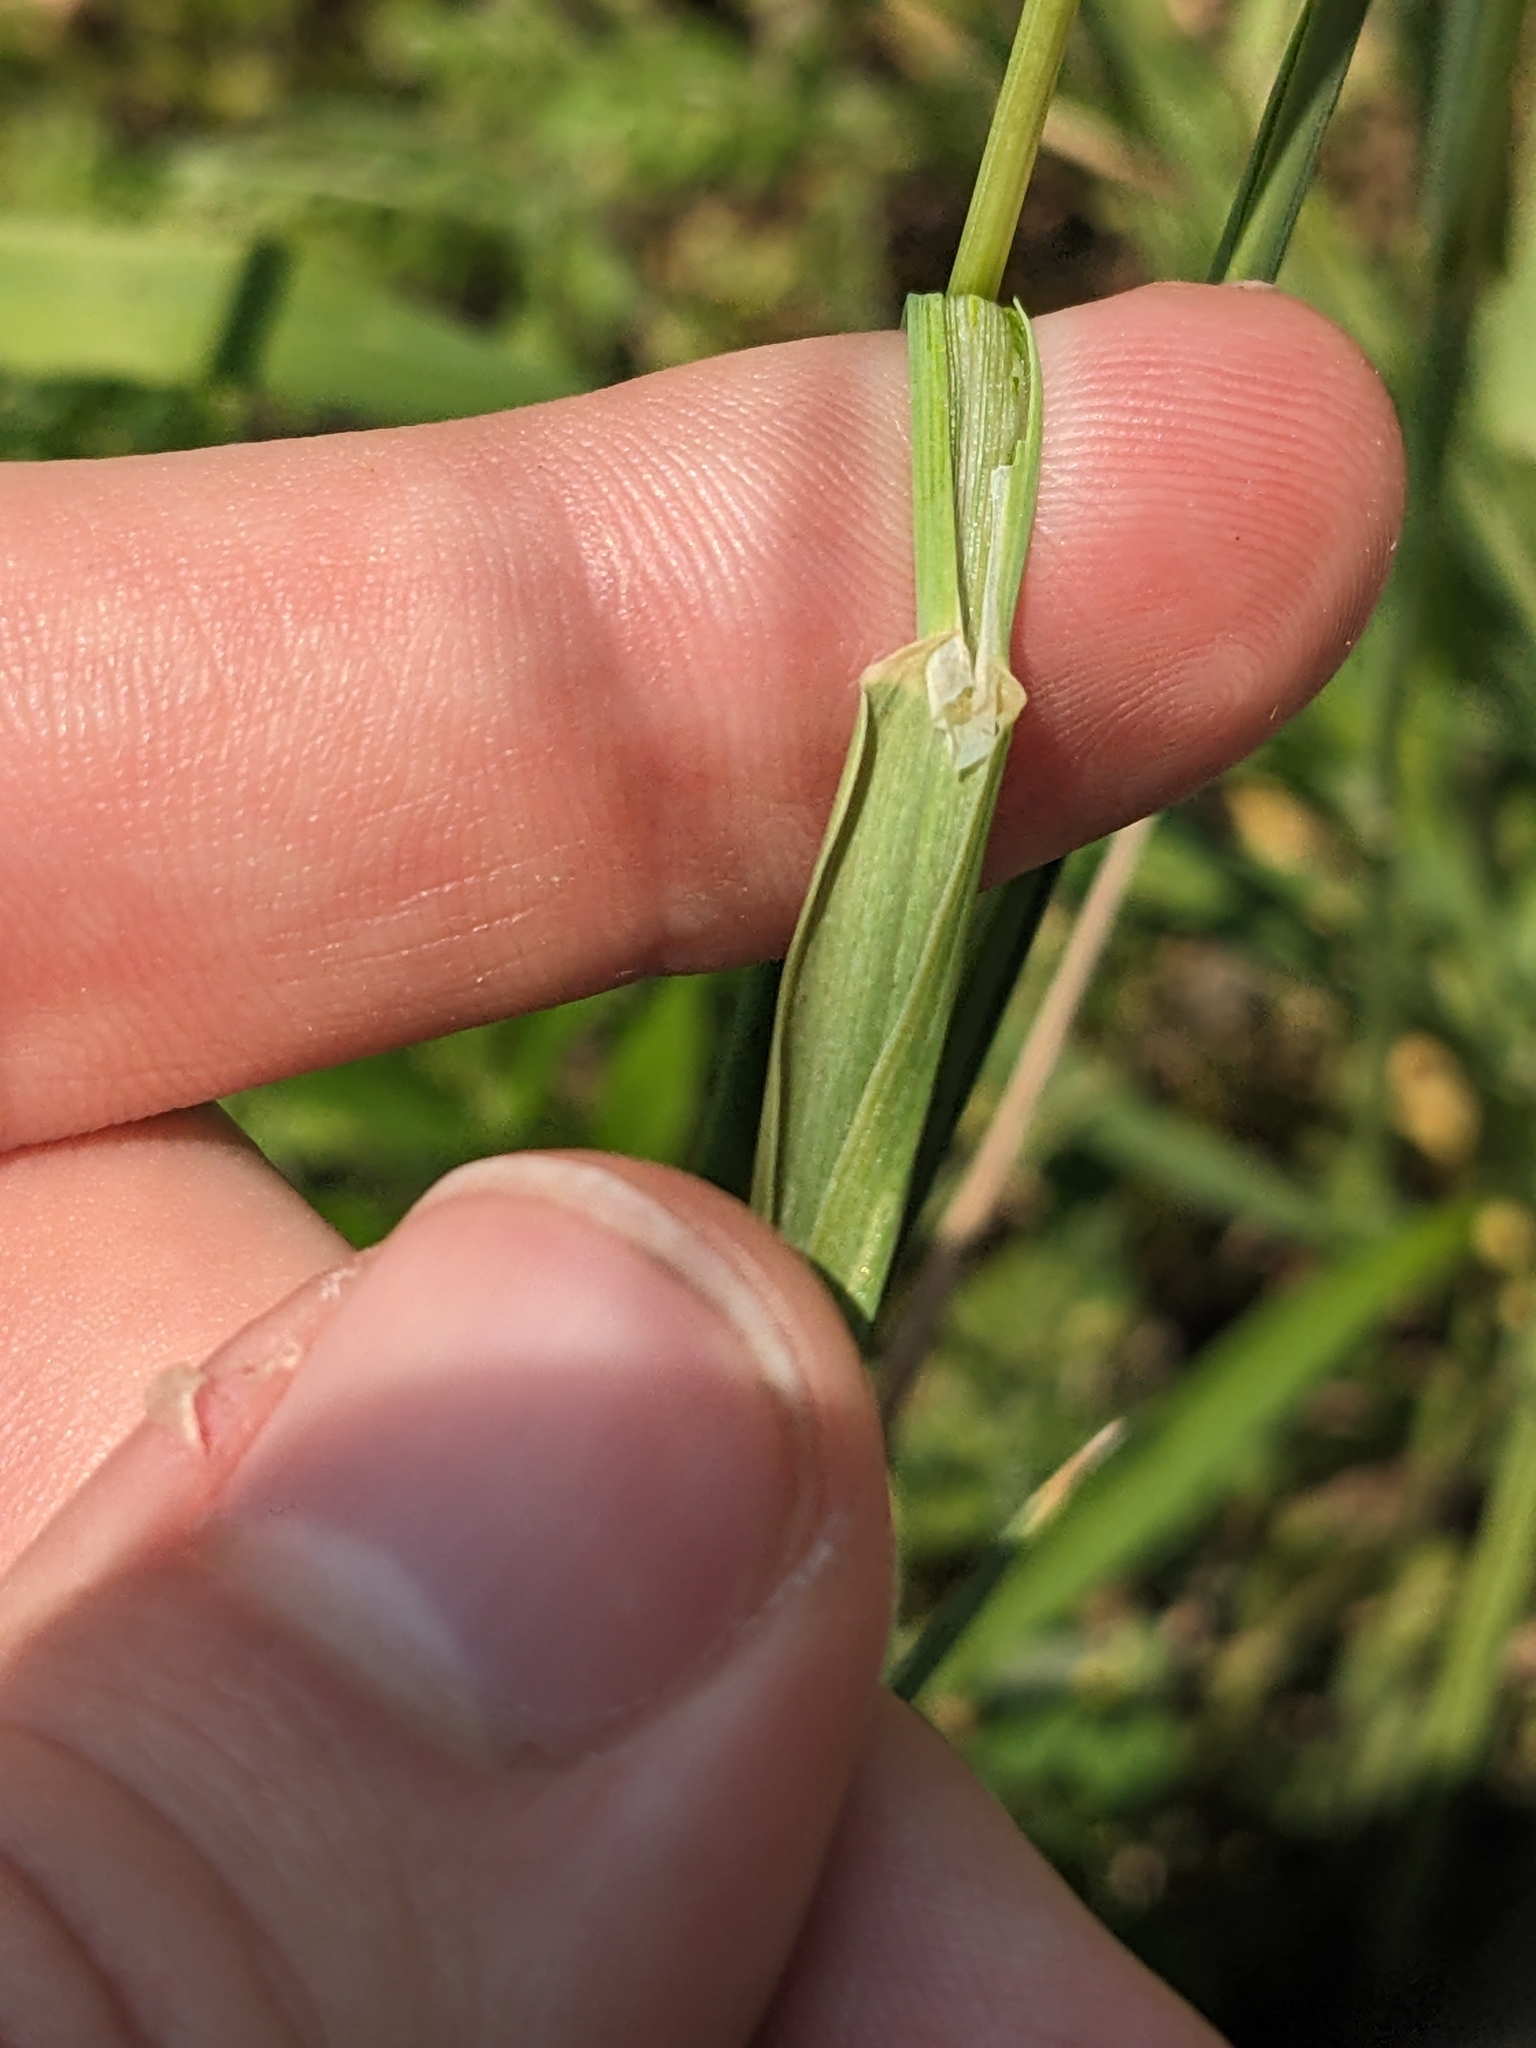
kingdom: Plantae
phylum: Tracheophyta
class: Liliopsida
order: Poales
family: Poaceae
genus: Phleum
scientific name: Phleum pratense
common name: Timothy grass
